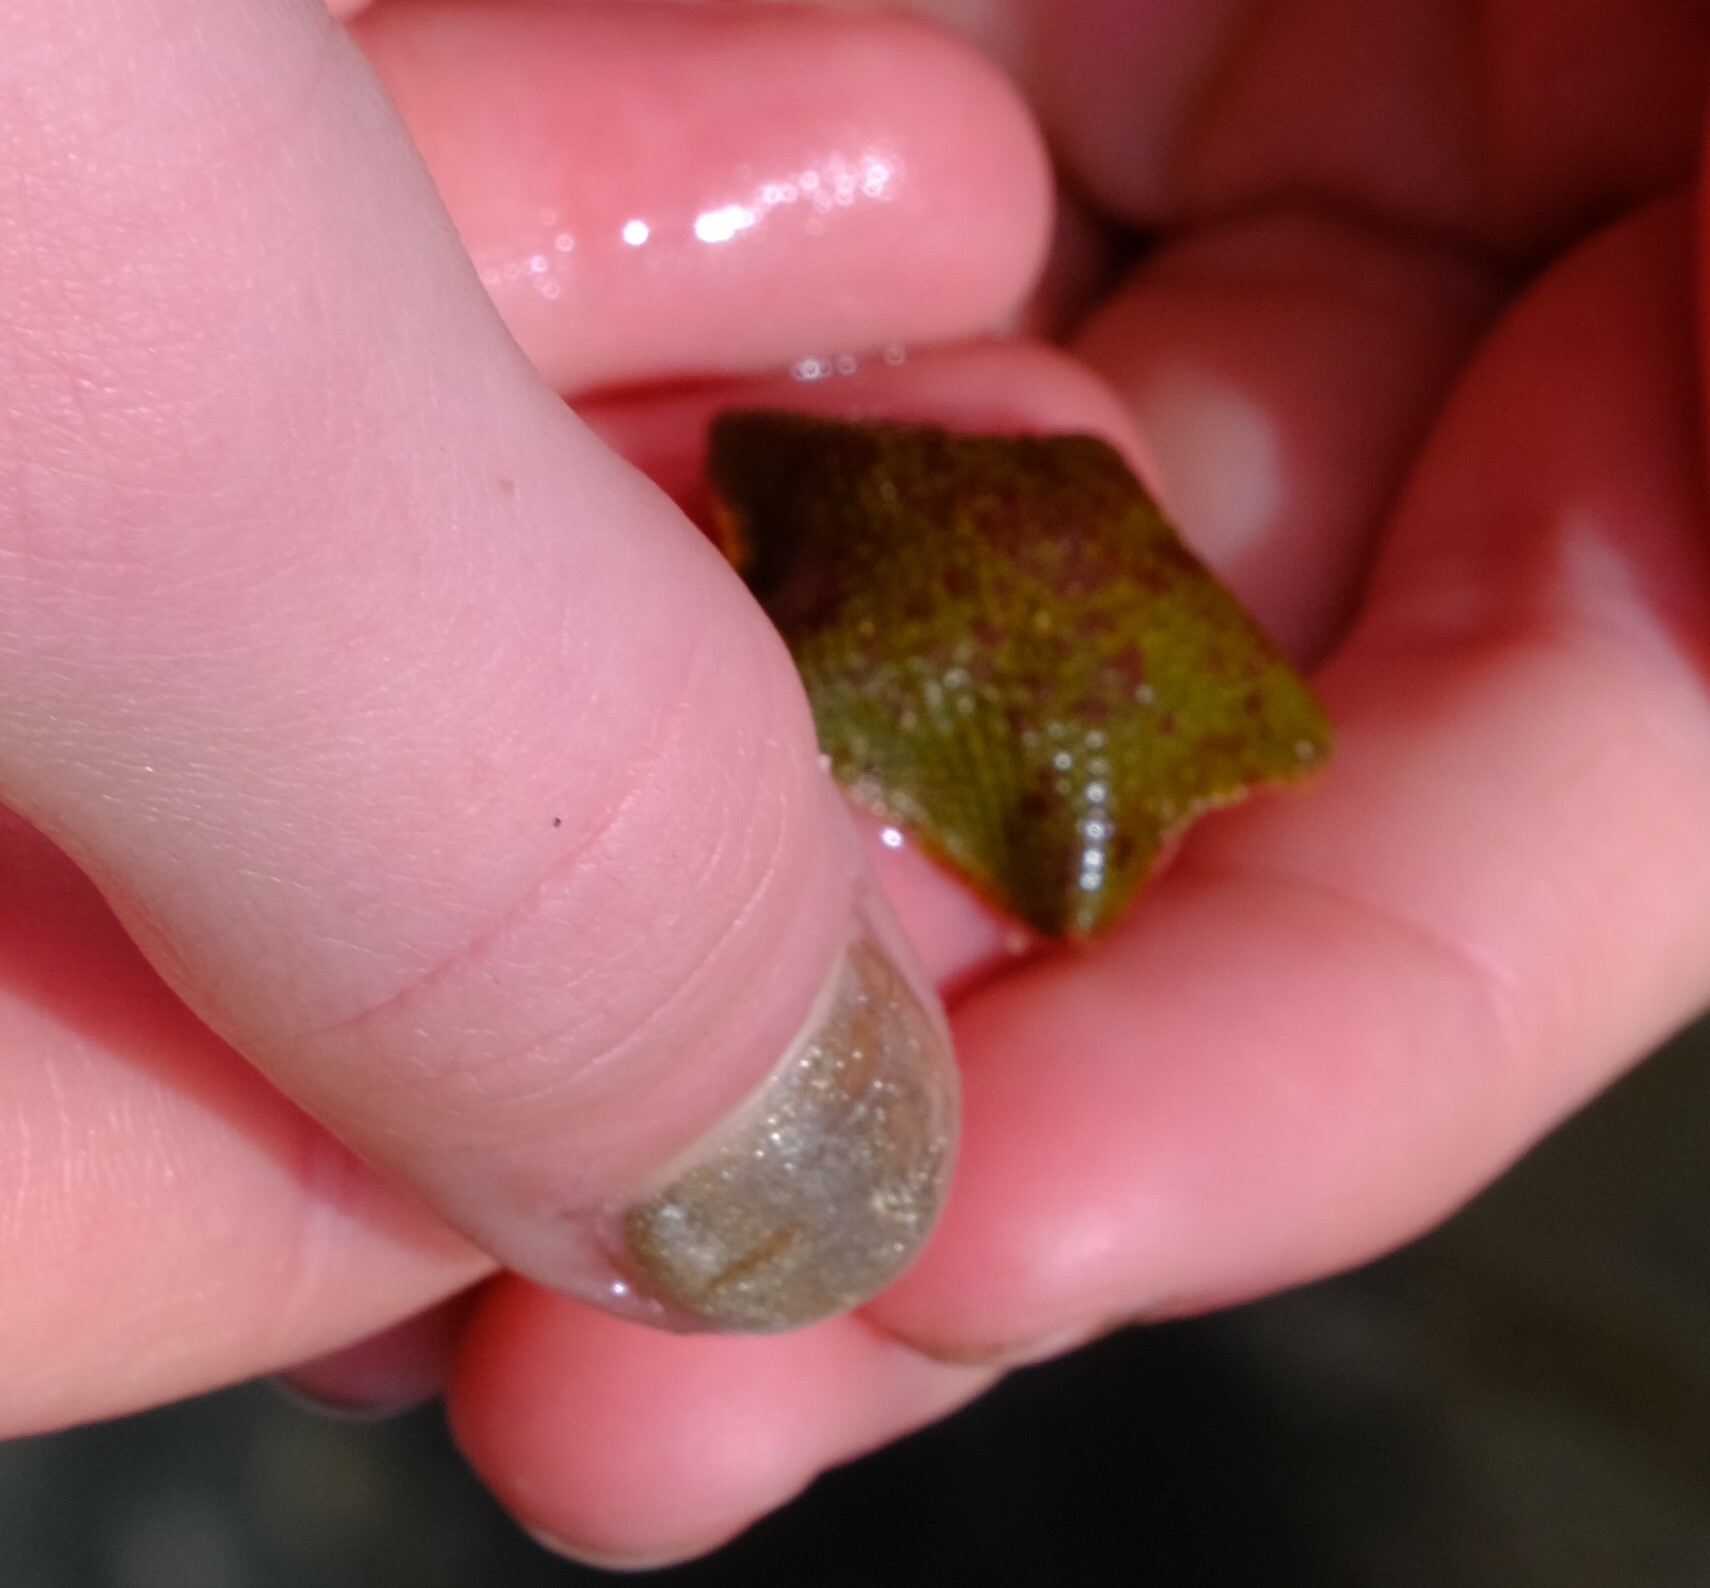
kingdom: Animalia
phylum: Echinodermata
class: Asteroidea
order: Valvatida
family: Asterinidae
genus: Parvulastra
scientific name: Parvulastra exigua
